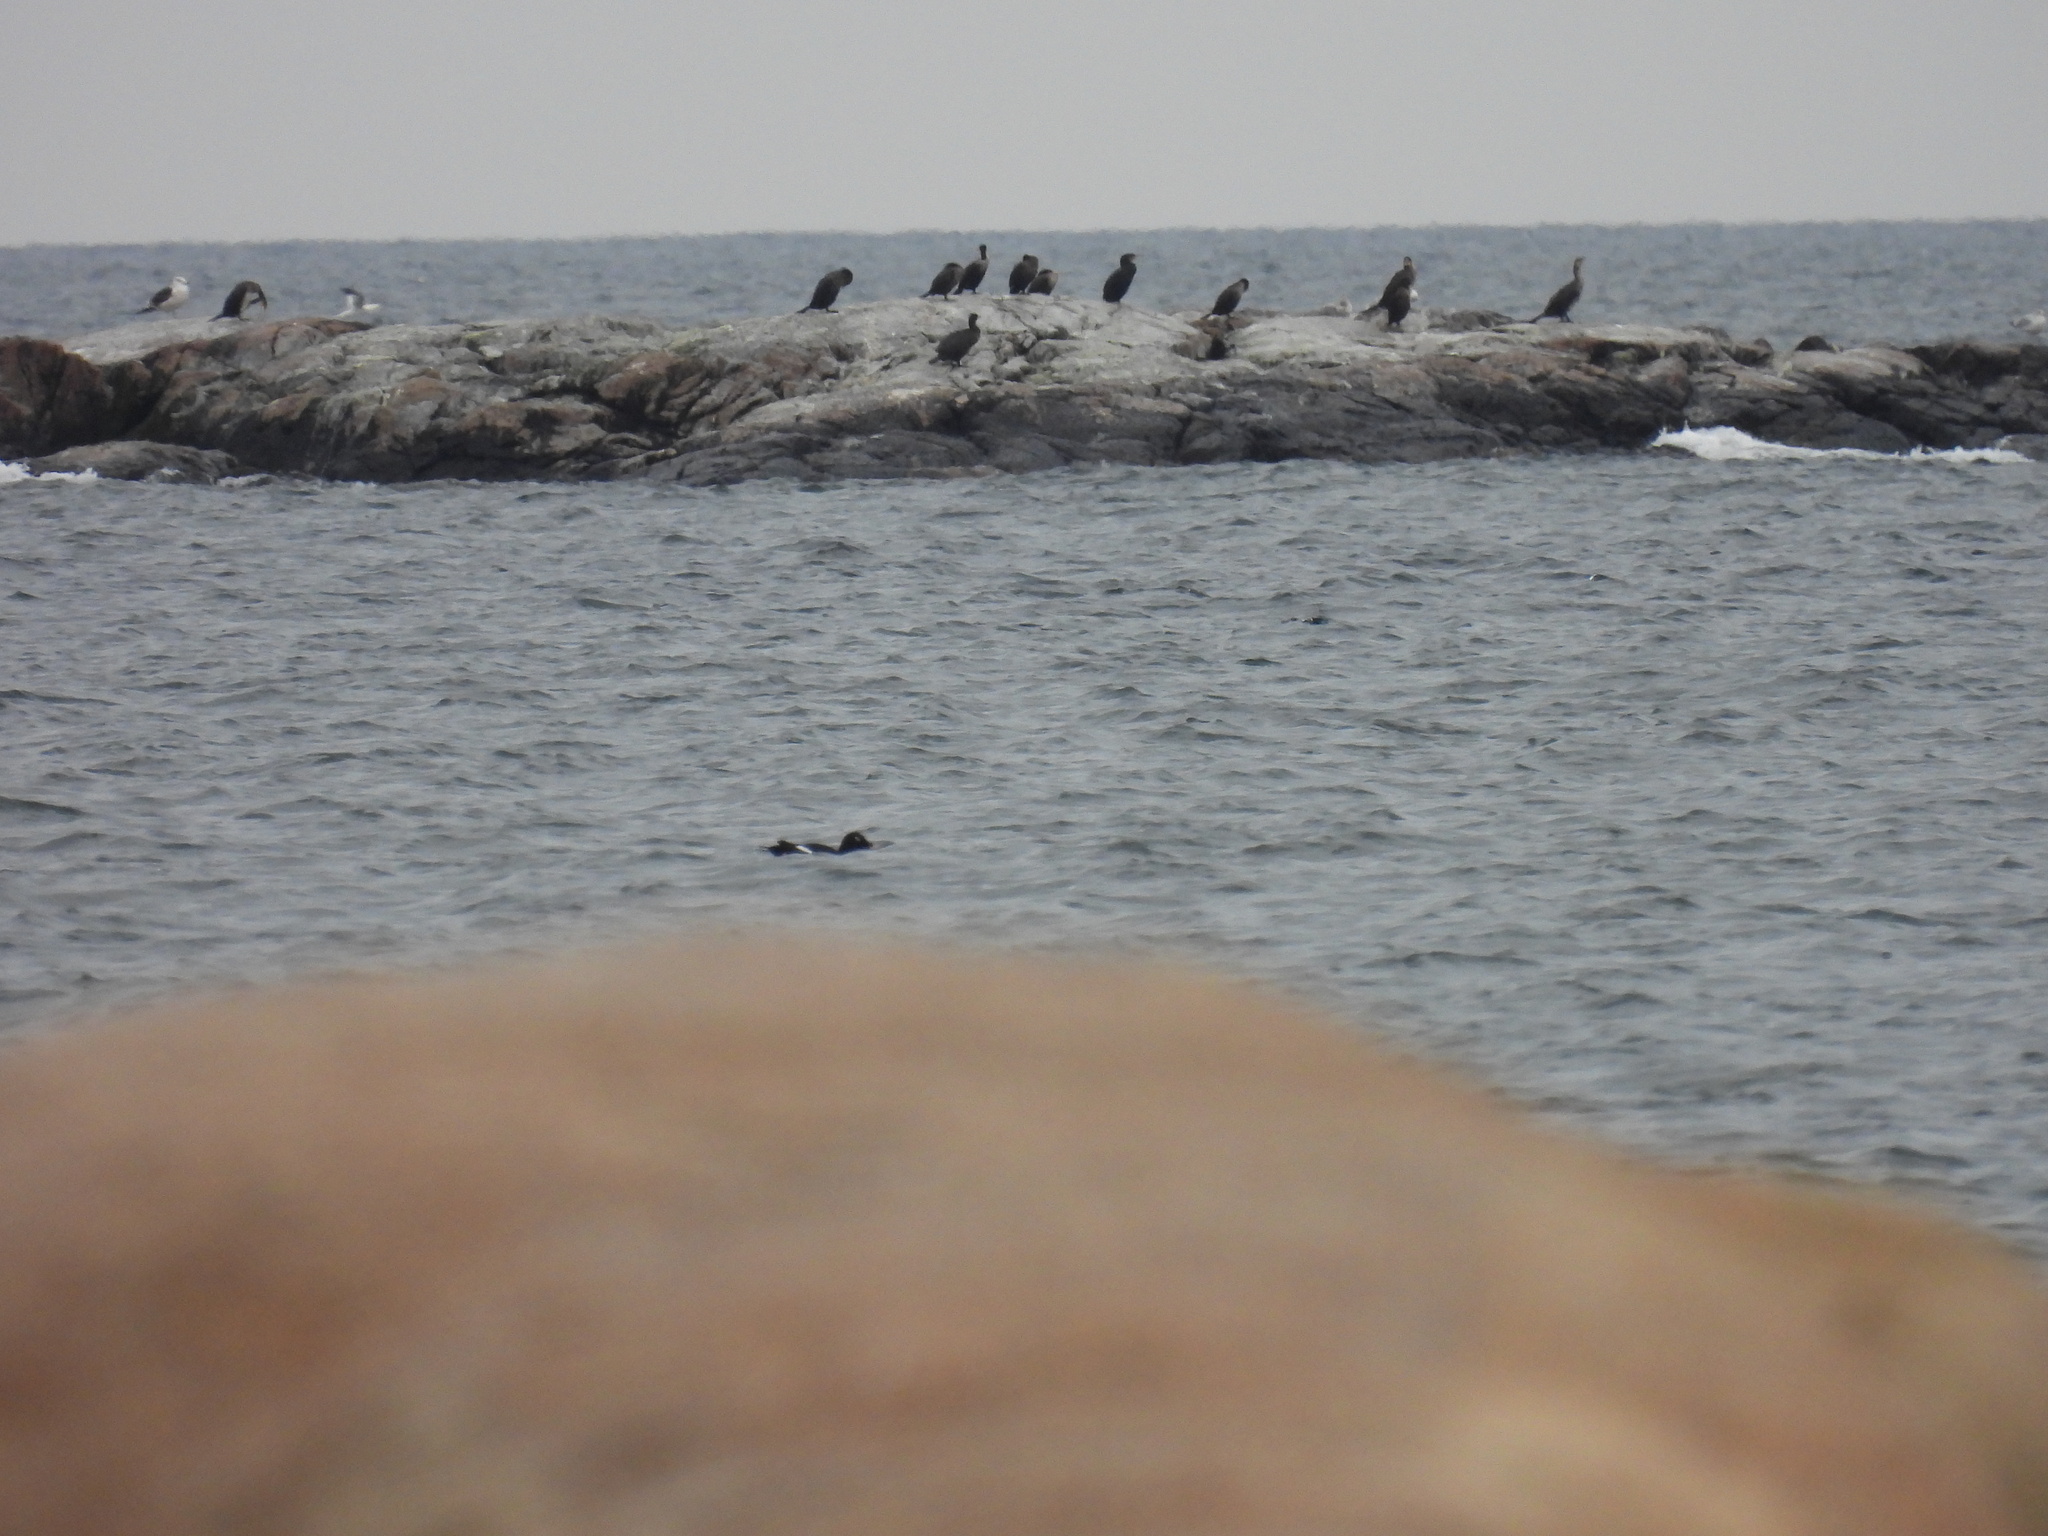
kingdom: Animalia
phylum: Chordata
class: Aves
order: Anseriformes
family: Anatidae
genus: Melanitta
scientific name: Melanitta deglandi
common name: White-winged scoter
